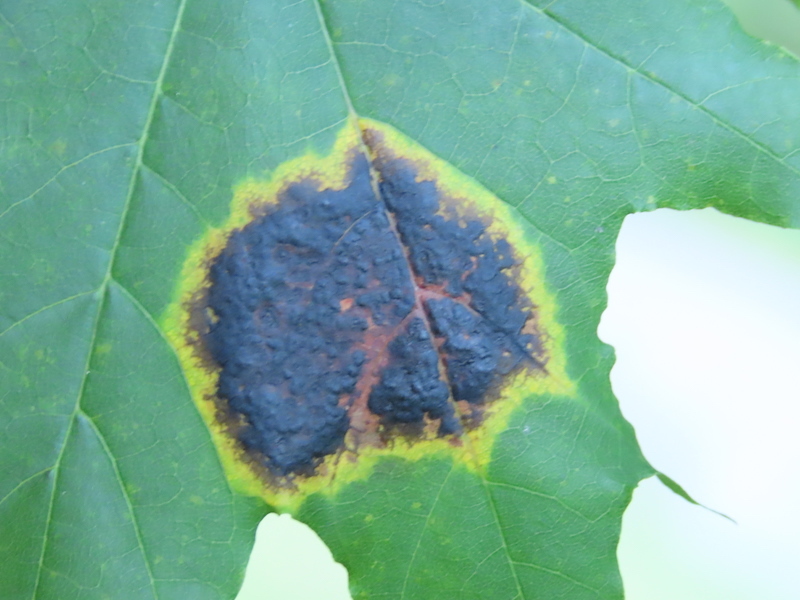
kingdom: Fungi
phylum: Ascomycota
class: Leotiomycetes
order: Rhytismatales
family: Rhytismataceae
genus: Rhytisma
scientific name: Rhytisma acerinum
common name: European tar spot
